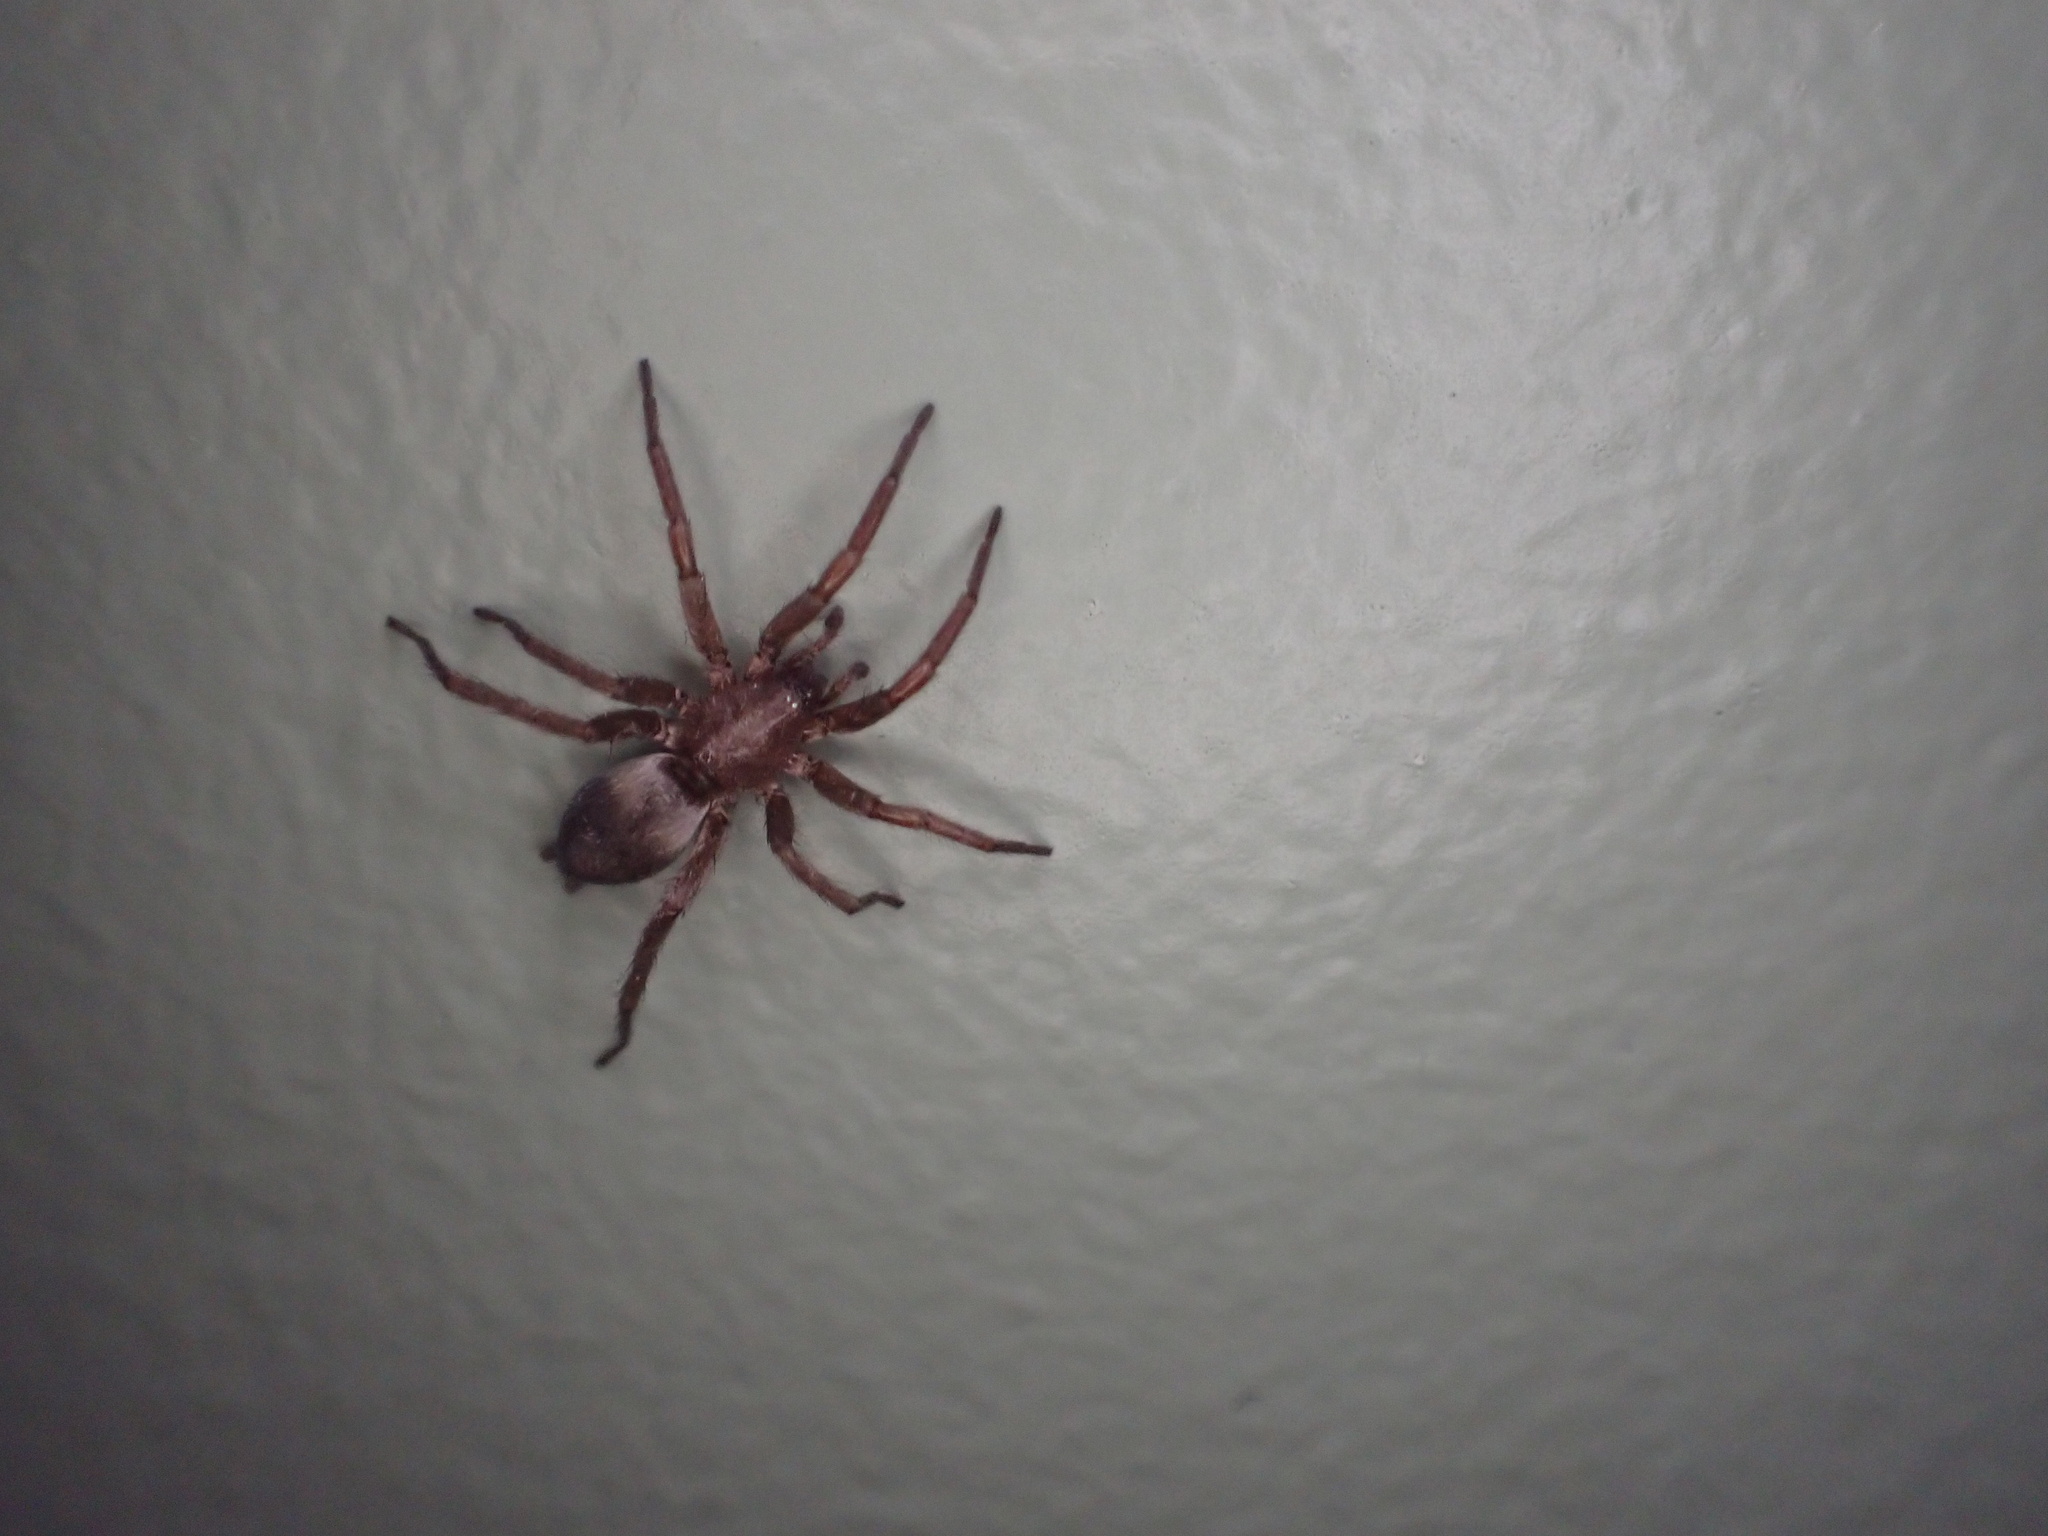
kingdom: Animalia
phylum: Arthropoda
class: Arachnida
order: Araneae
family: Gnaphosidae
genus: Scotophaeus
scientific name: Scotophaeus blackwalli
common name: Mouse spider
